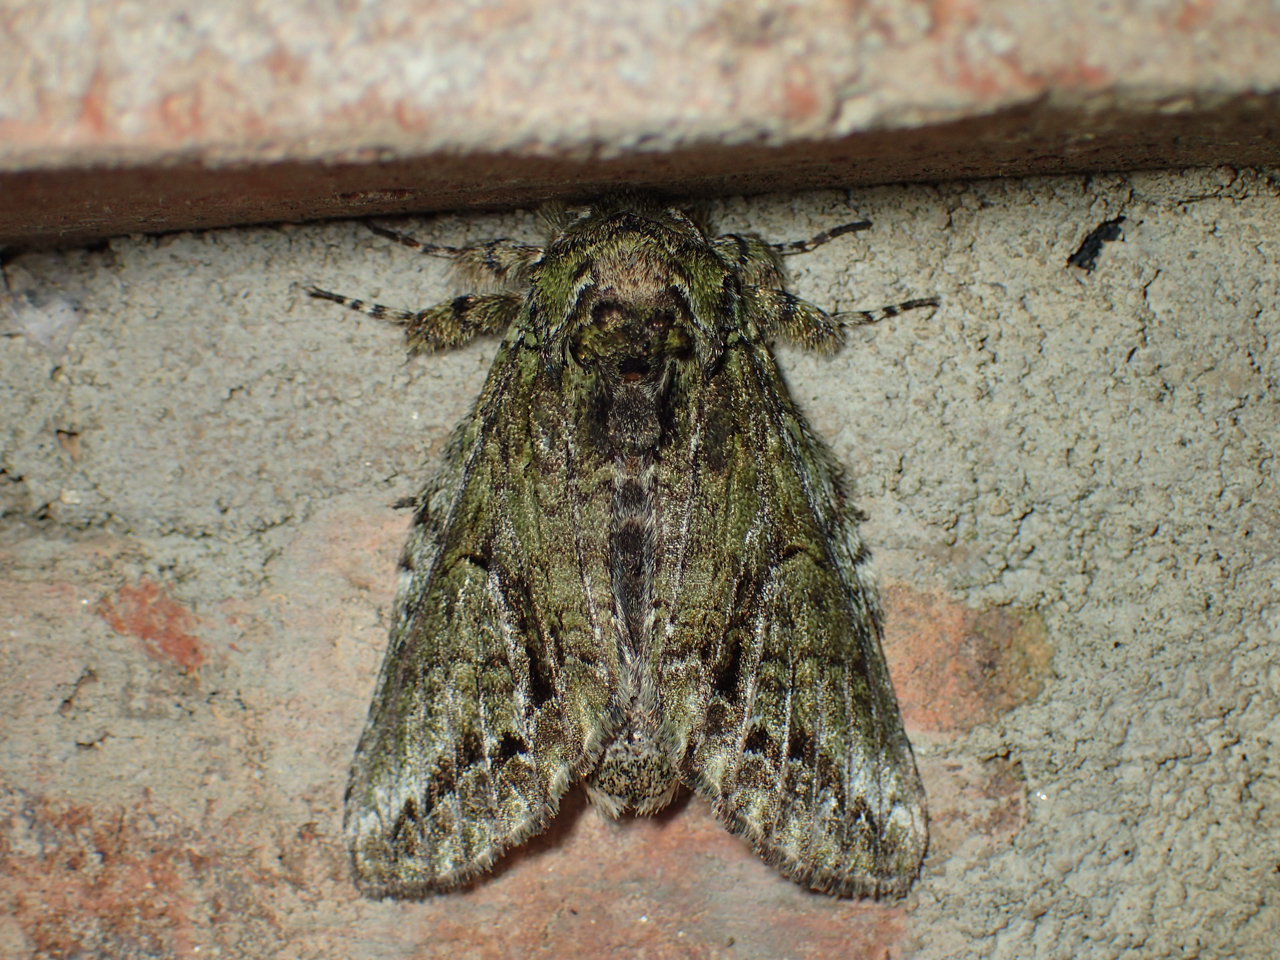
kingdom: Animalia
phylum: Arthropoda
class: Insecta
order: Lepidoptera
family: Notodontidae
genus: Heterocampa
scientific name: Heterocampa
